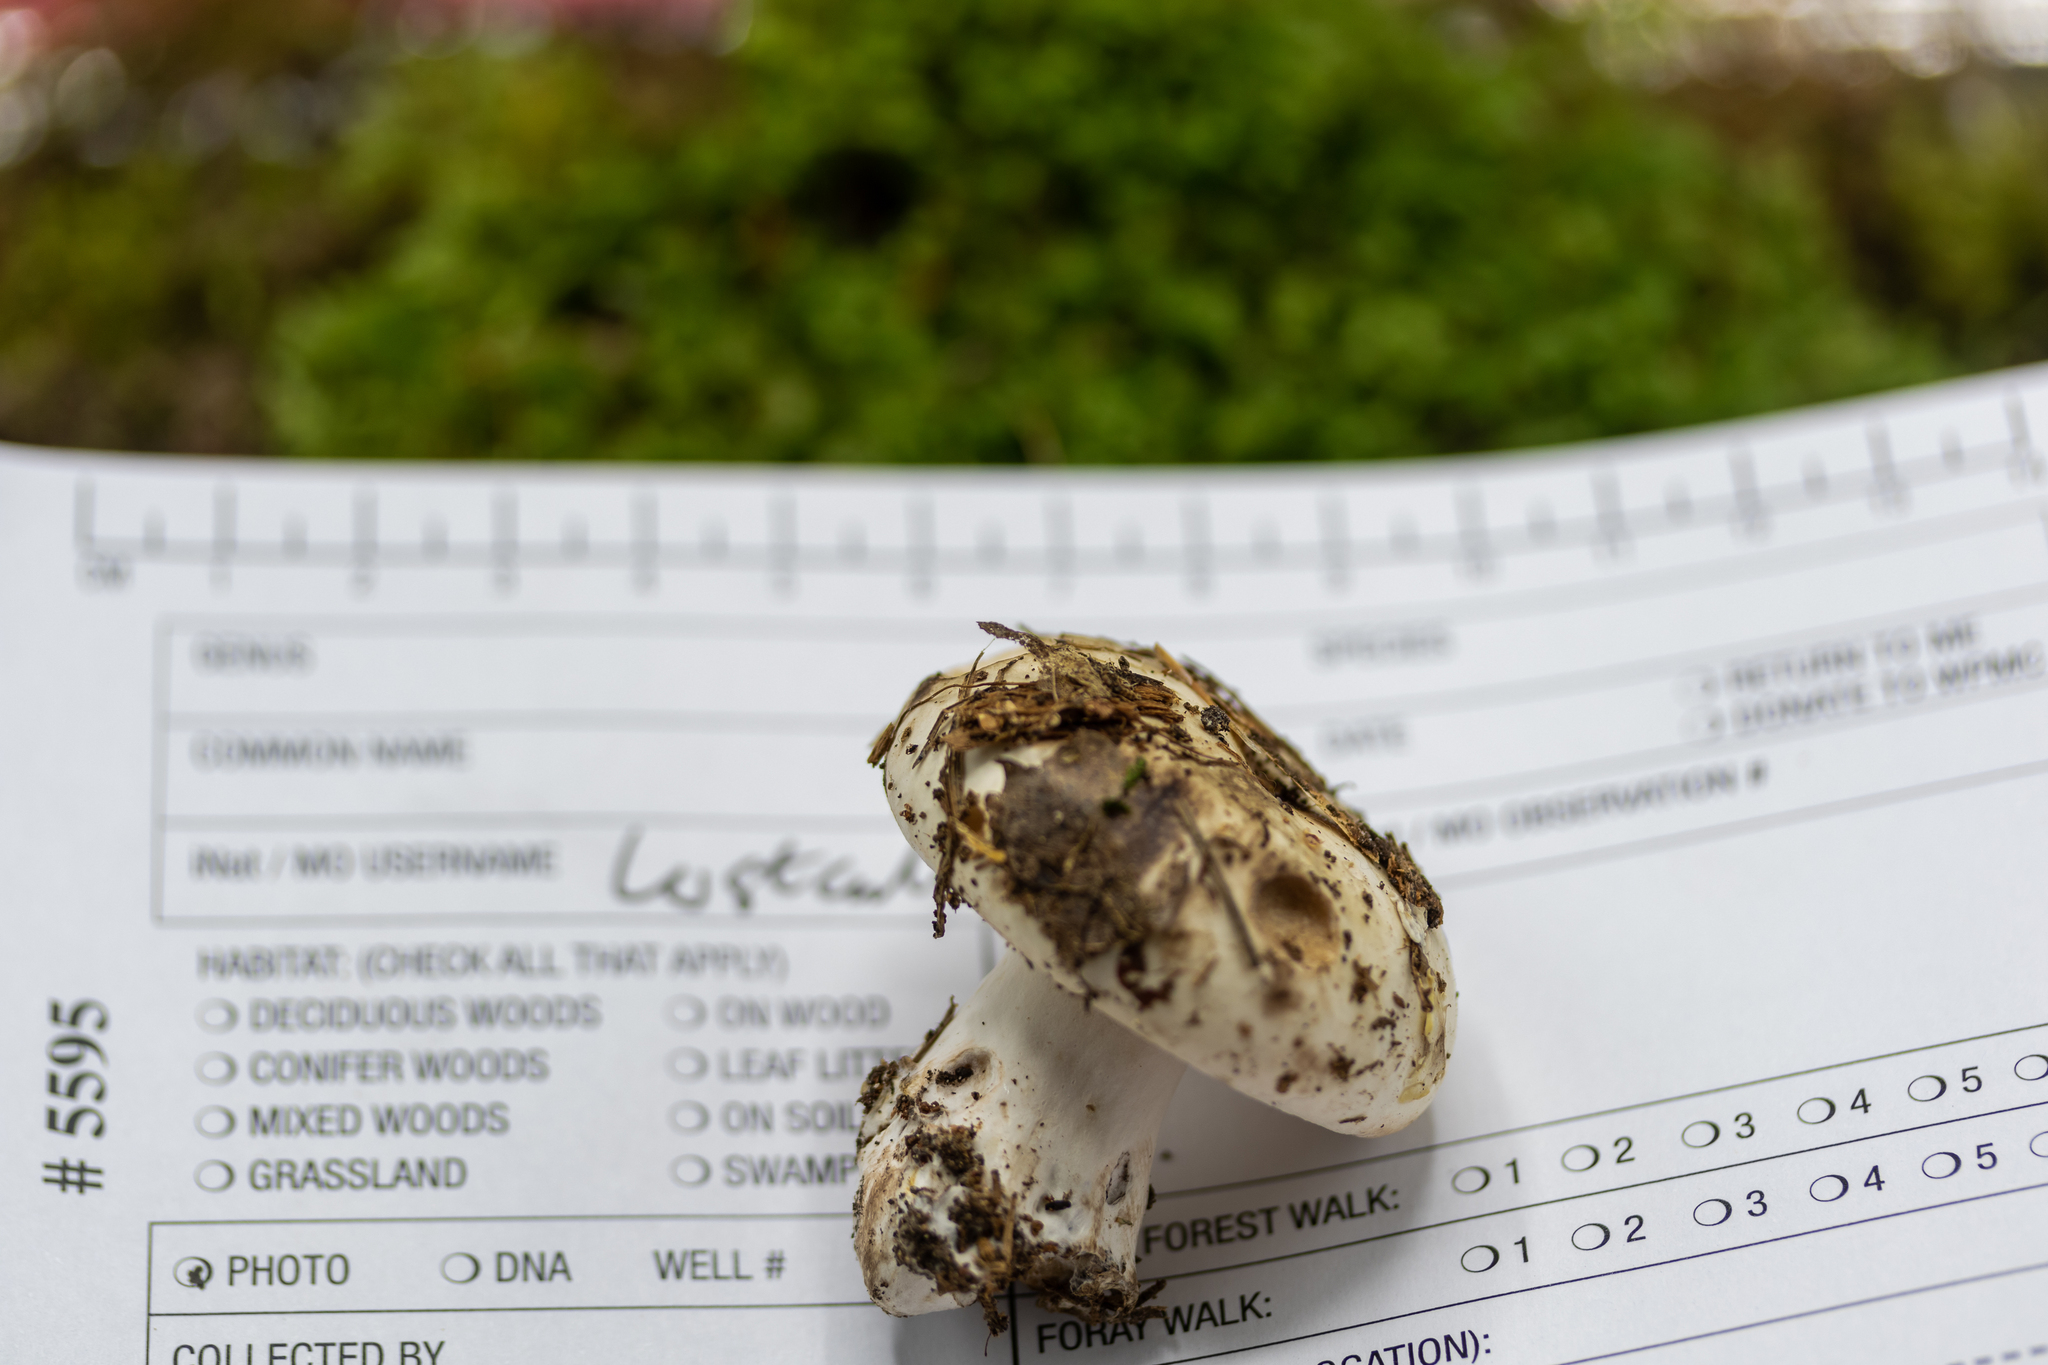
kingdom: Fungi
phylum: Basidiomycota
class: Agaricomycetes
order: Russulales
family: Russulaceae
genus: Russula
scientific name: Russula dissimulans
